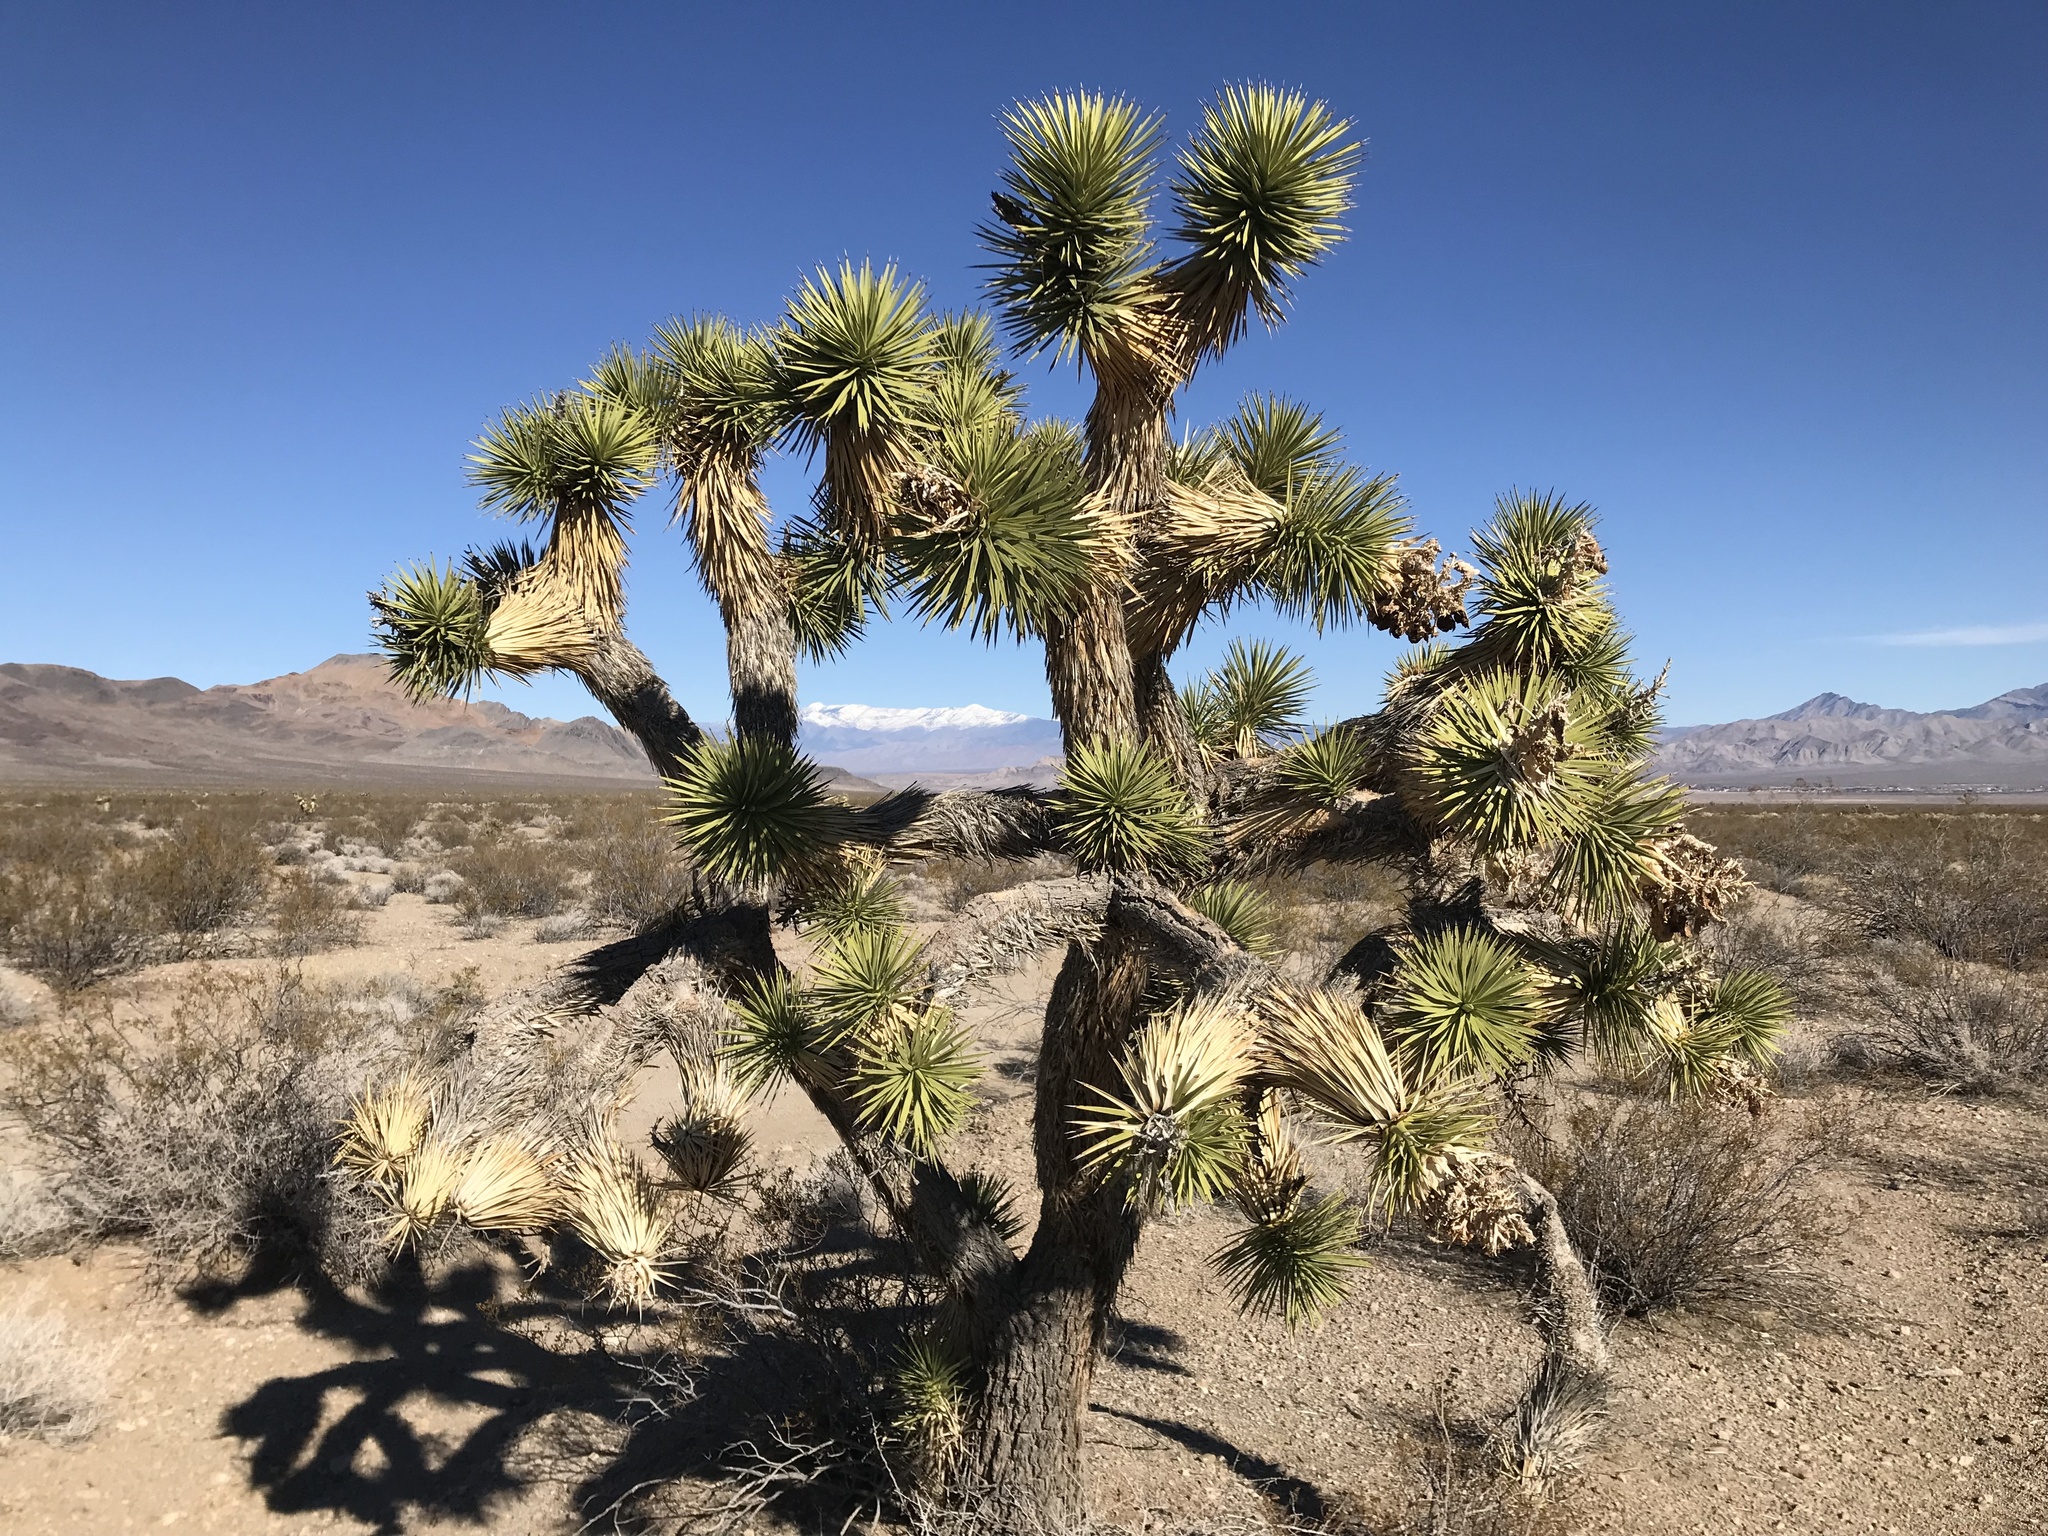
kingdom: Plantae
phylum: Tracheophyta
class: Liliopsida
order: Asparagales
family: Asparagaceae
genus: Yucca
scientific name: Yucca brevifolia
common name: Joshua tree
